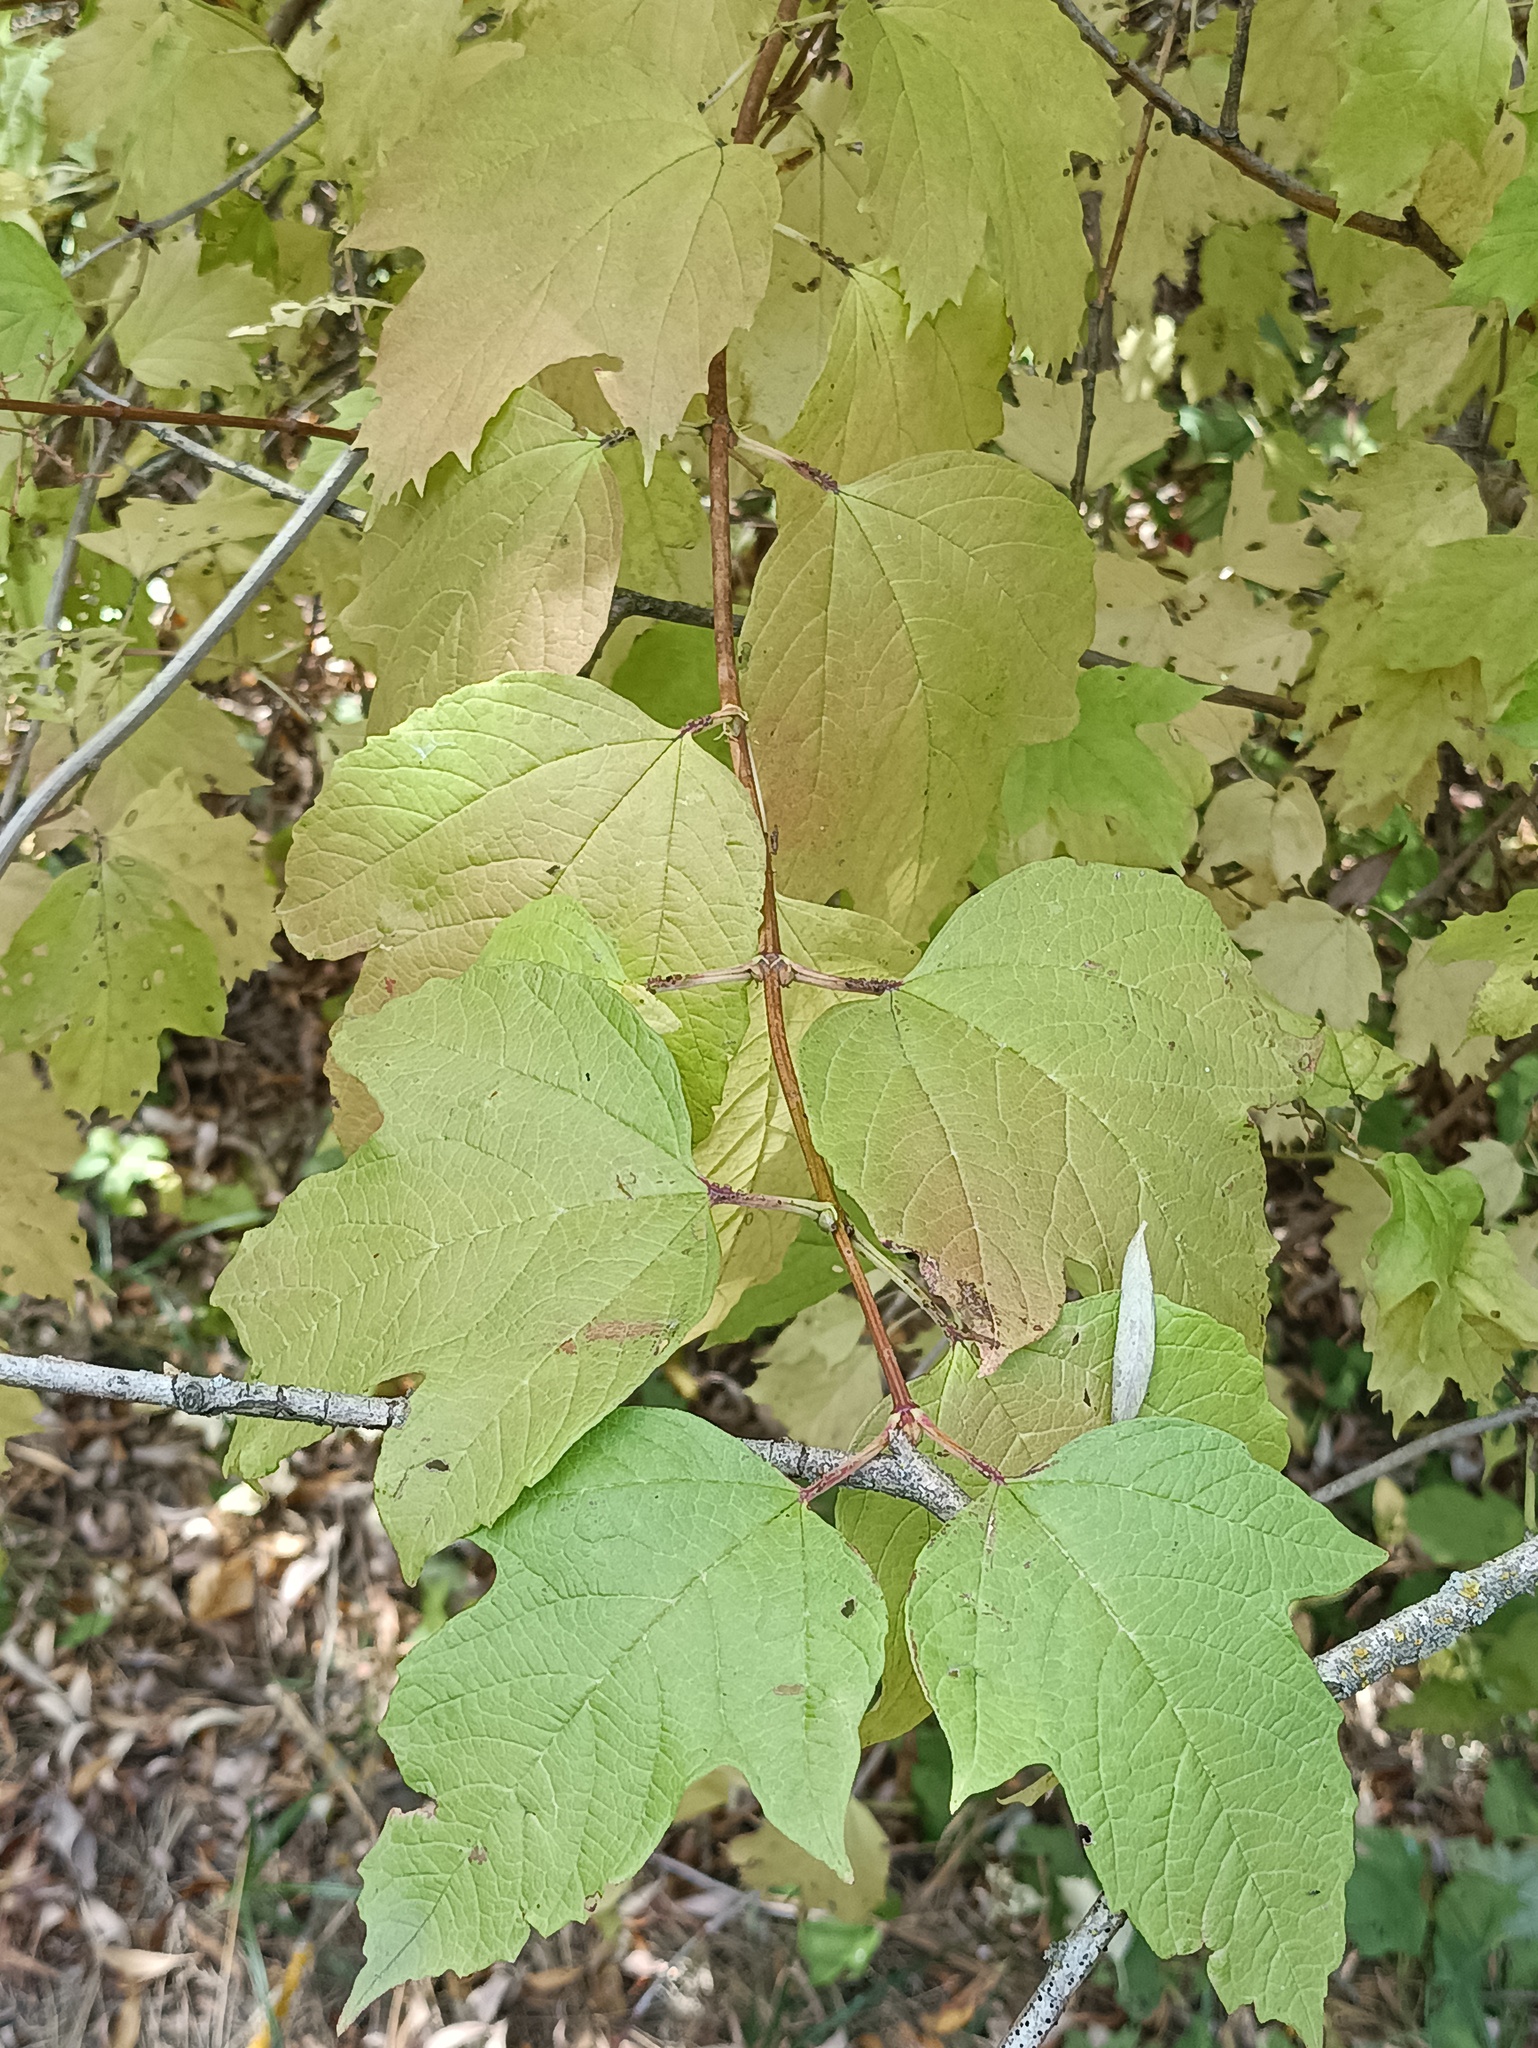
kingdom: Plantae
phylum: Tracheophyta
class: Magnoliopsida
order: Dipsacales
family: Viburnaceae
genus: Viburnum
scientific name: Viburnum opulus
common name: Guelder-rose
